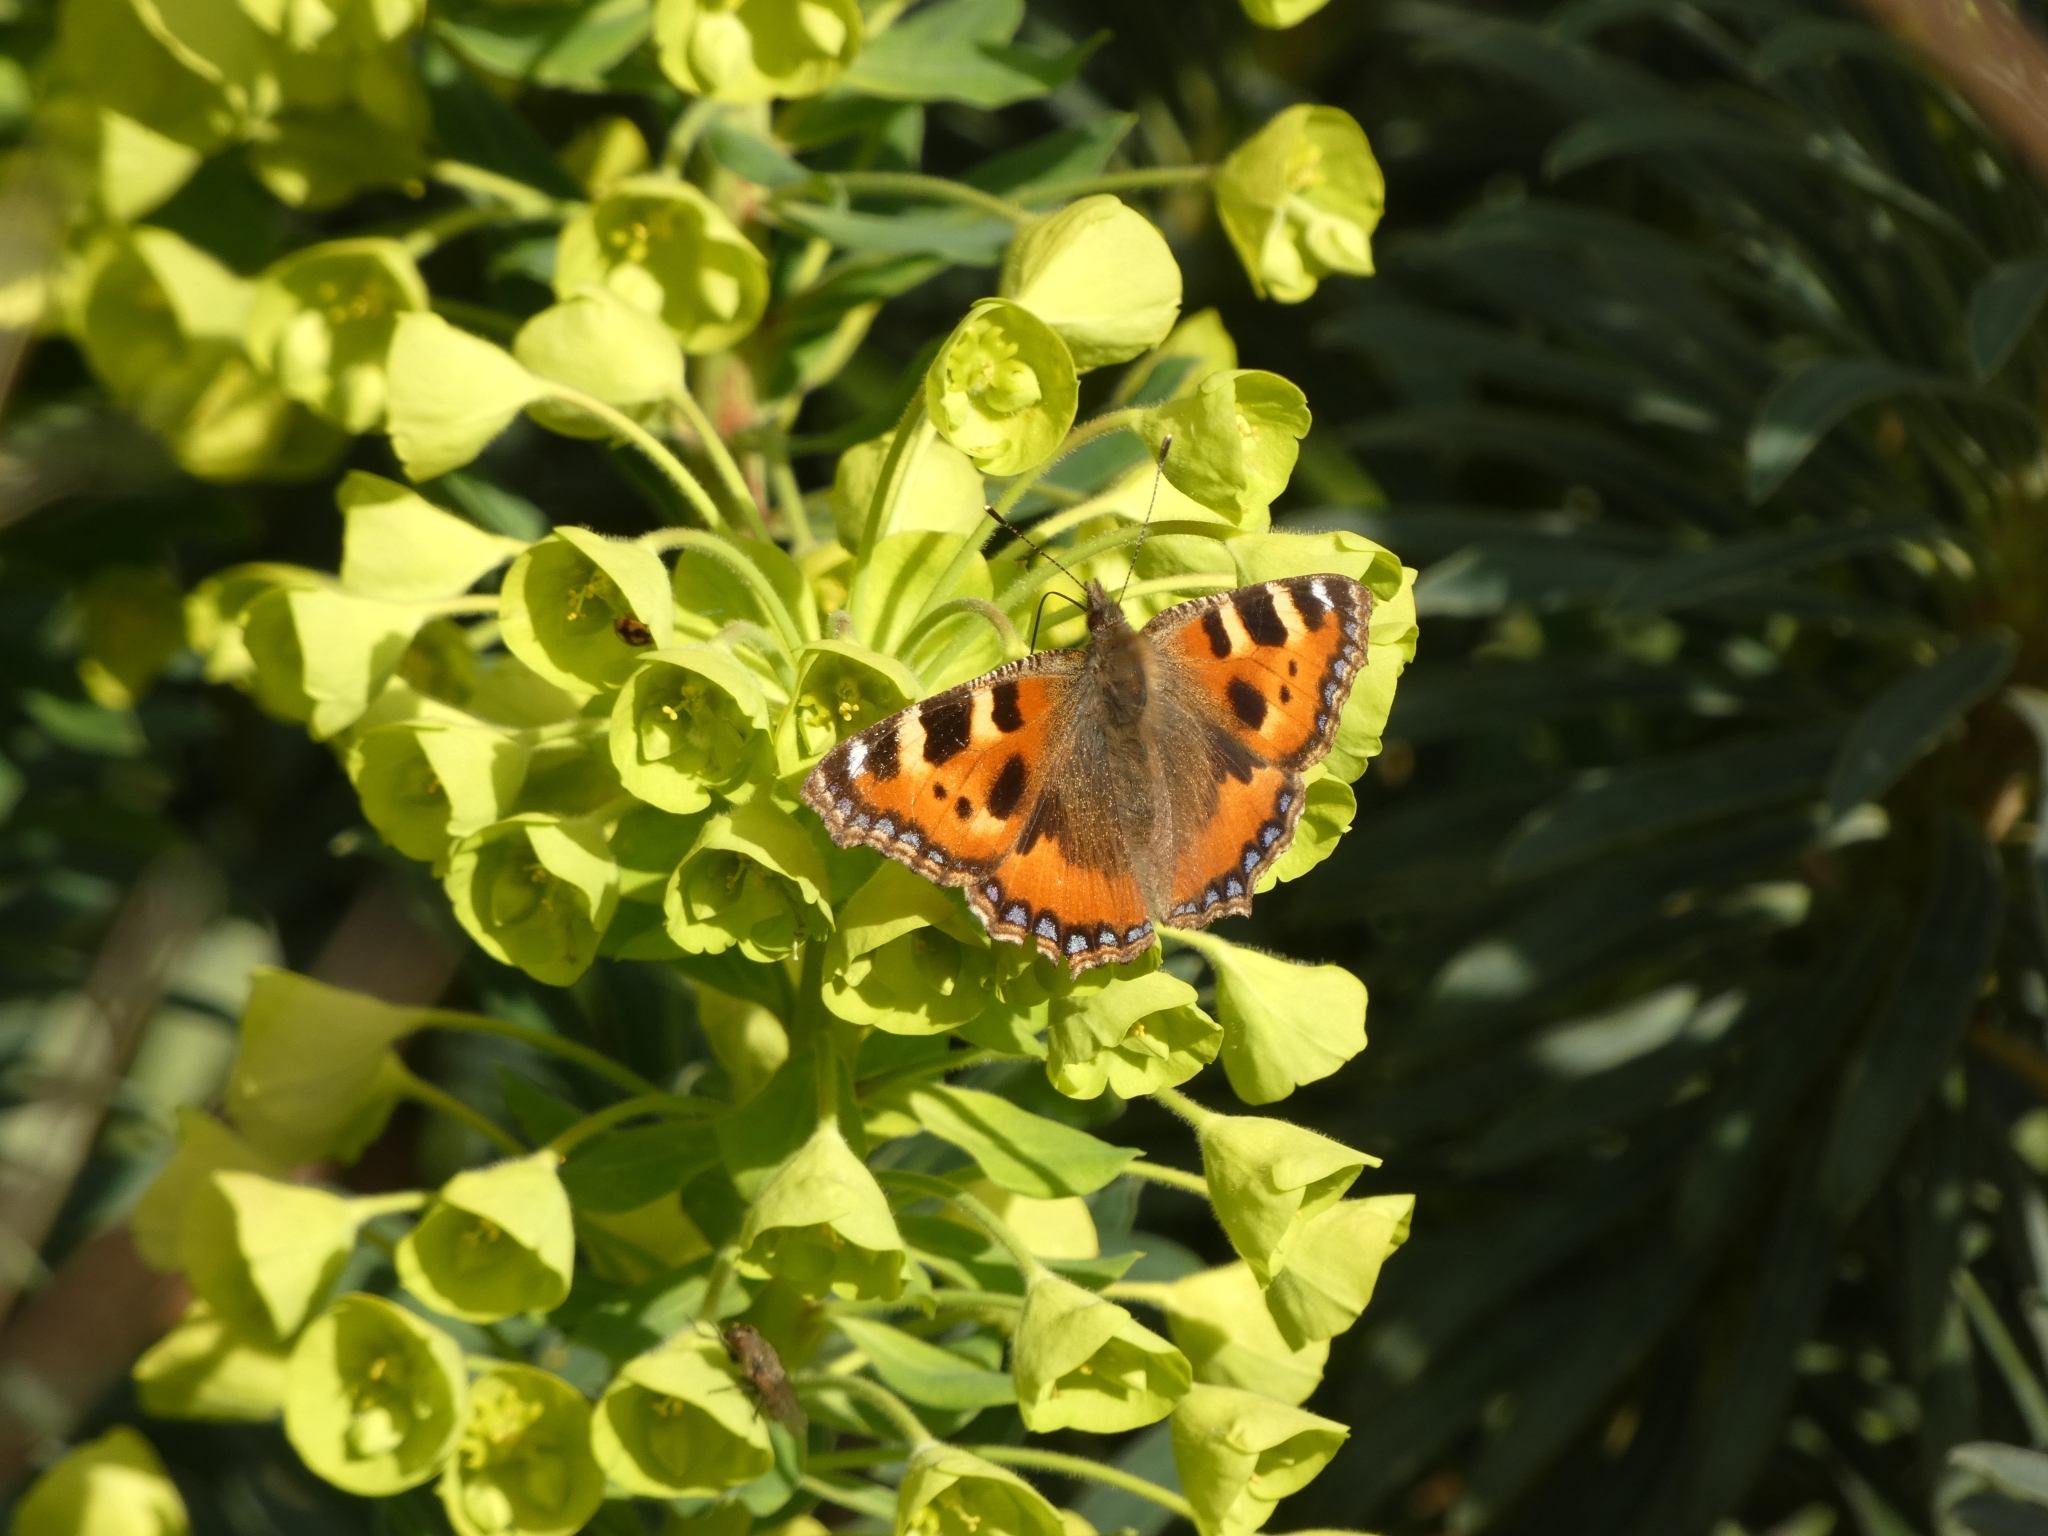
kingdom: Animalia
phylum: Arthropoda
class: Insecta
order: Lepidoptera
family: Nymphalidae
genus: Aglais
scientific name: Aglais urticae
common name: Small tortoiseshell
